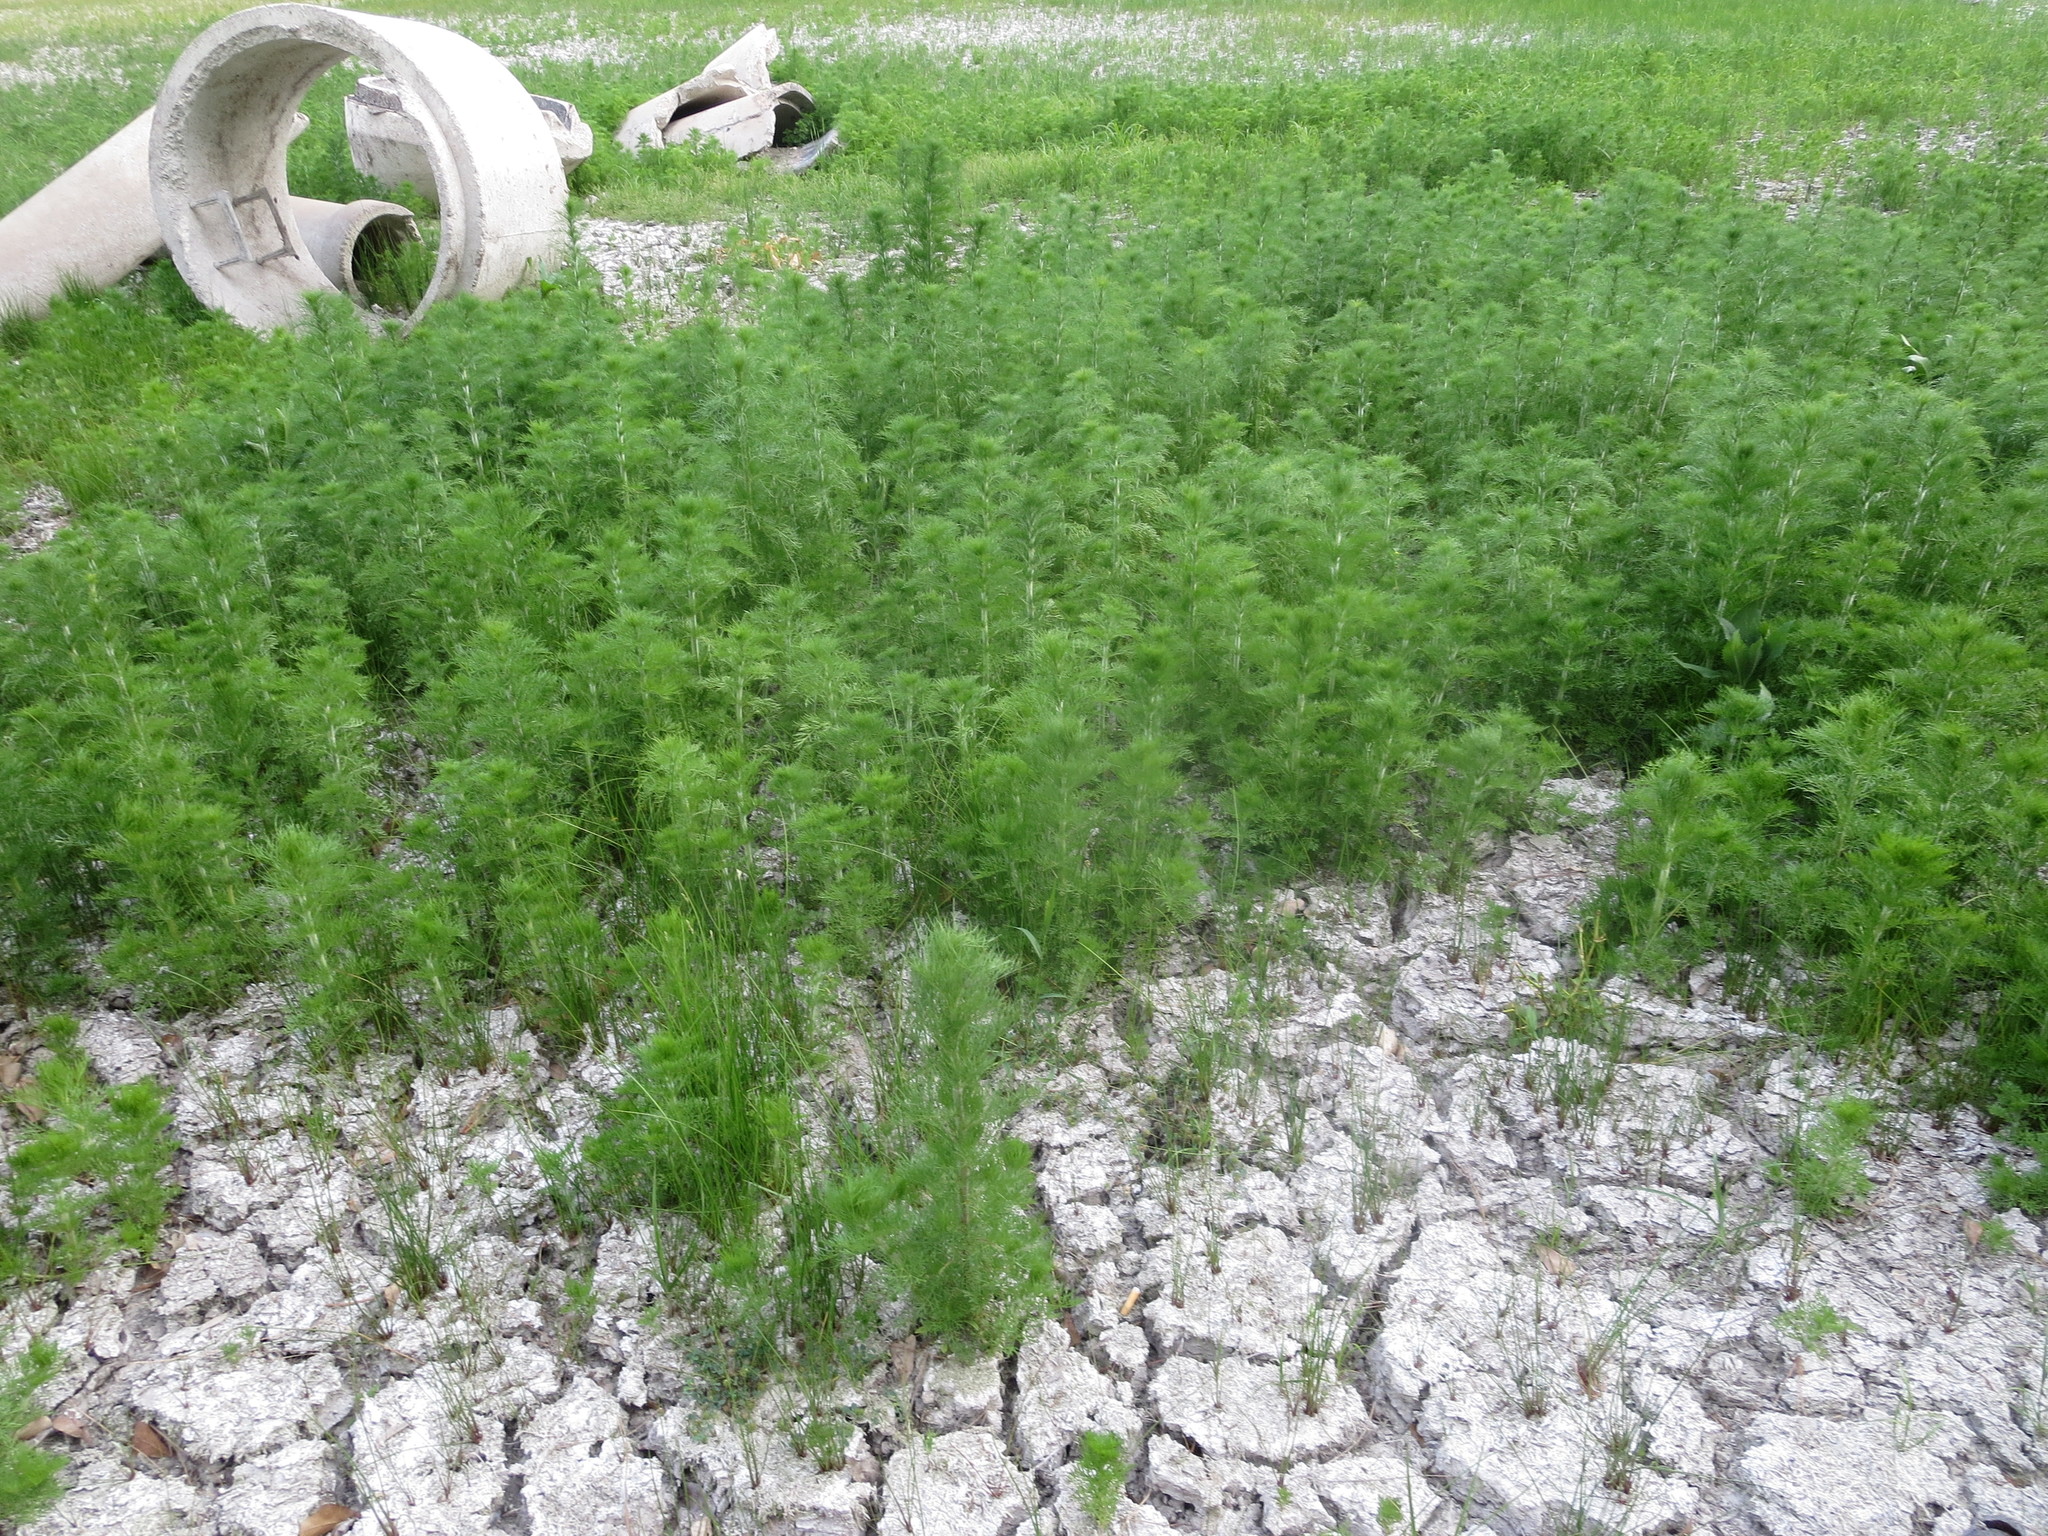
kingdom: Plantae
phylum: Tracheophyta
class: Magnoliopsida
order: Asterales
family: Asteraceae
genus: Eupatorium
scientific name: Eupatorium capillifolium
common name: Dog-fennel
